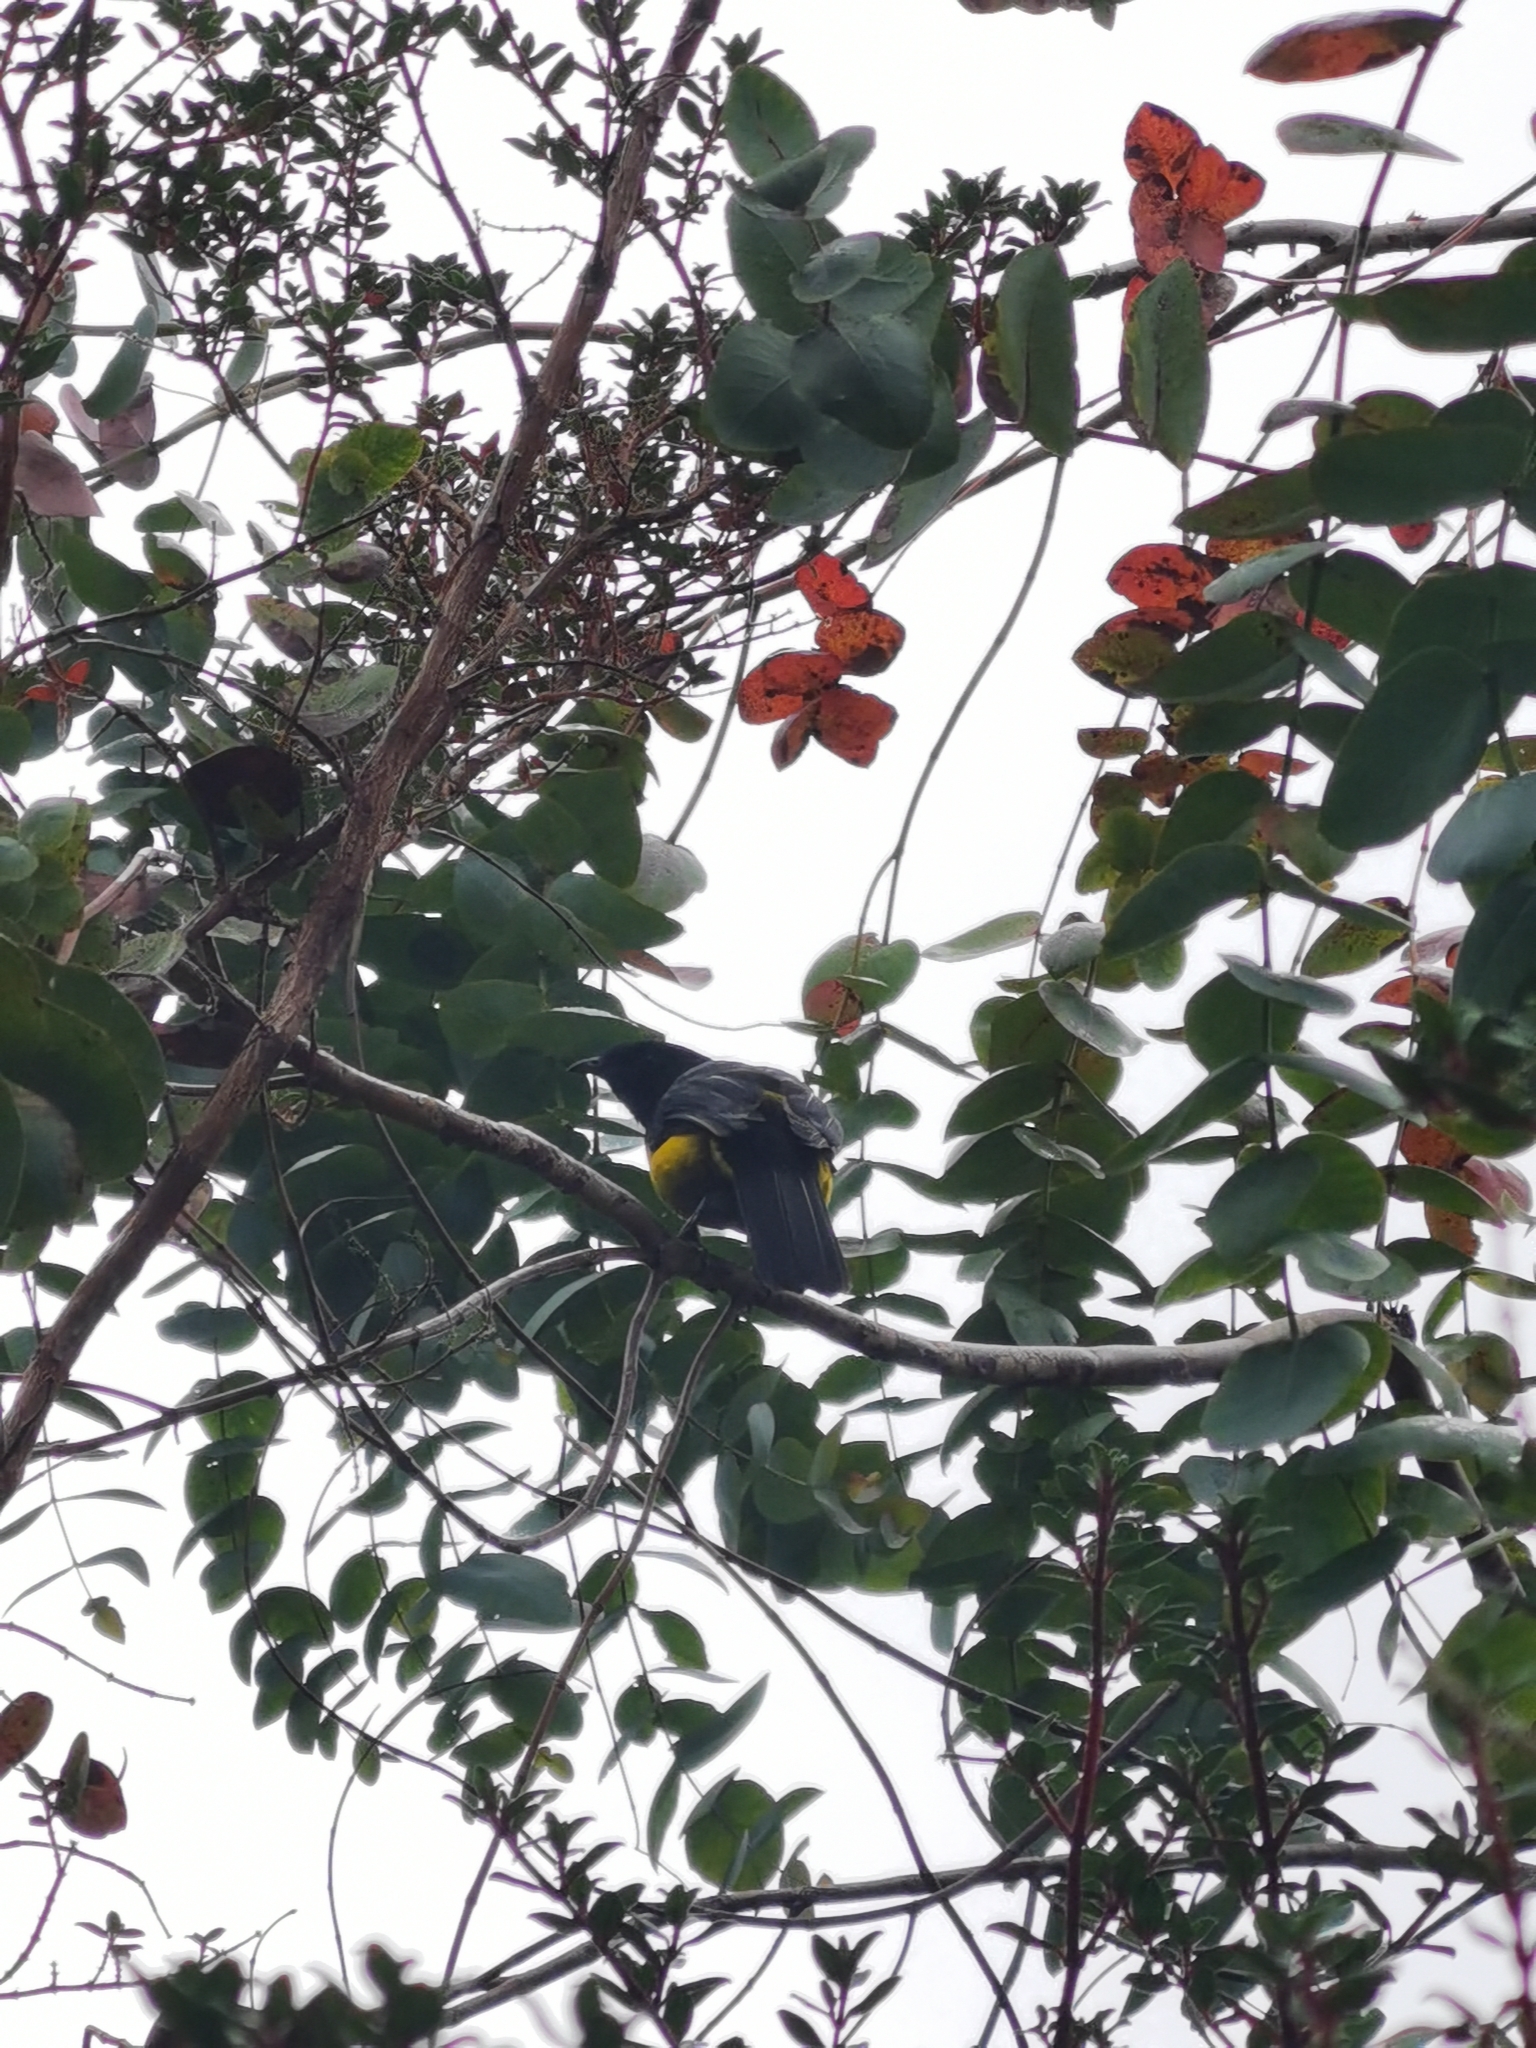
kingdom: Animalia
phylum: Chordata
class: Aves
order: Passeriformes
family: Ptilogonatidae
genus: Phainoptila
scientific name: Phainoptila melanoxantha
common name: Black-and-yellow phainoptila
